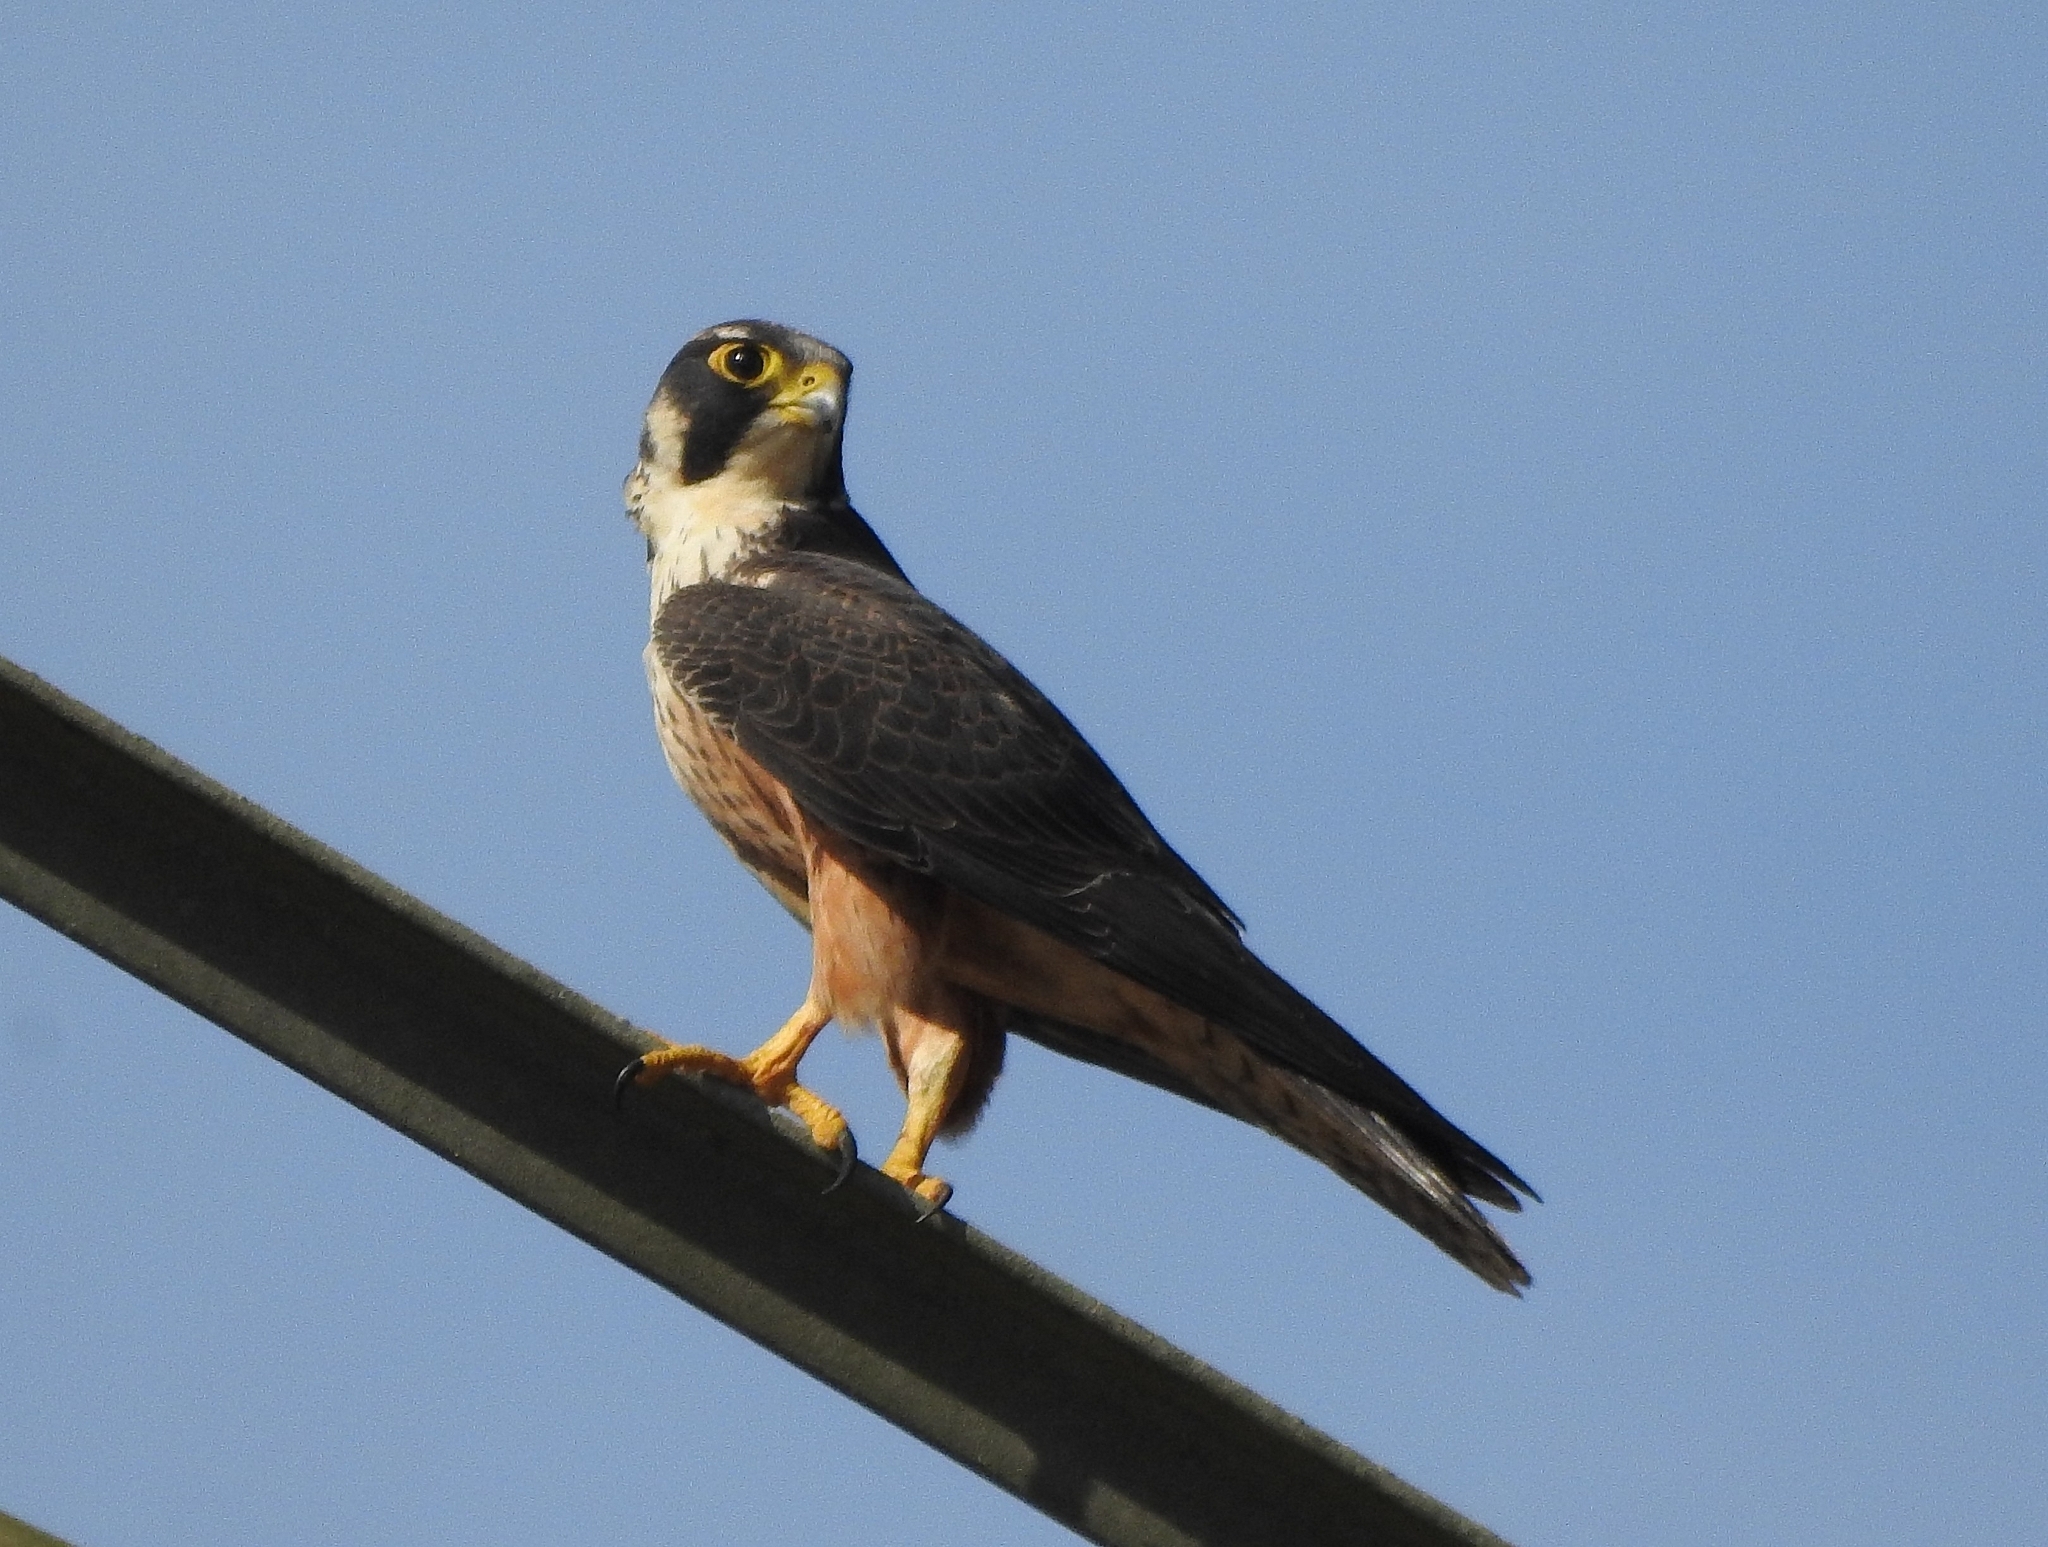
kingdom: Animalia
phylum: Chordata
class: Aves
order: Falconiformes
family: Falconidae
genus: Falco
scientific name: Falco peregrinus
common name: Peregrine falcon
